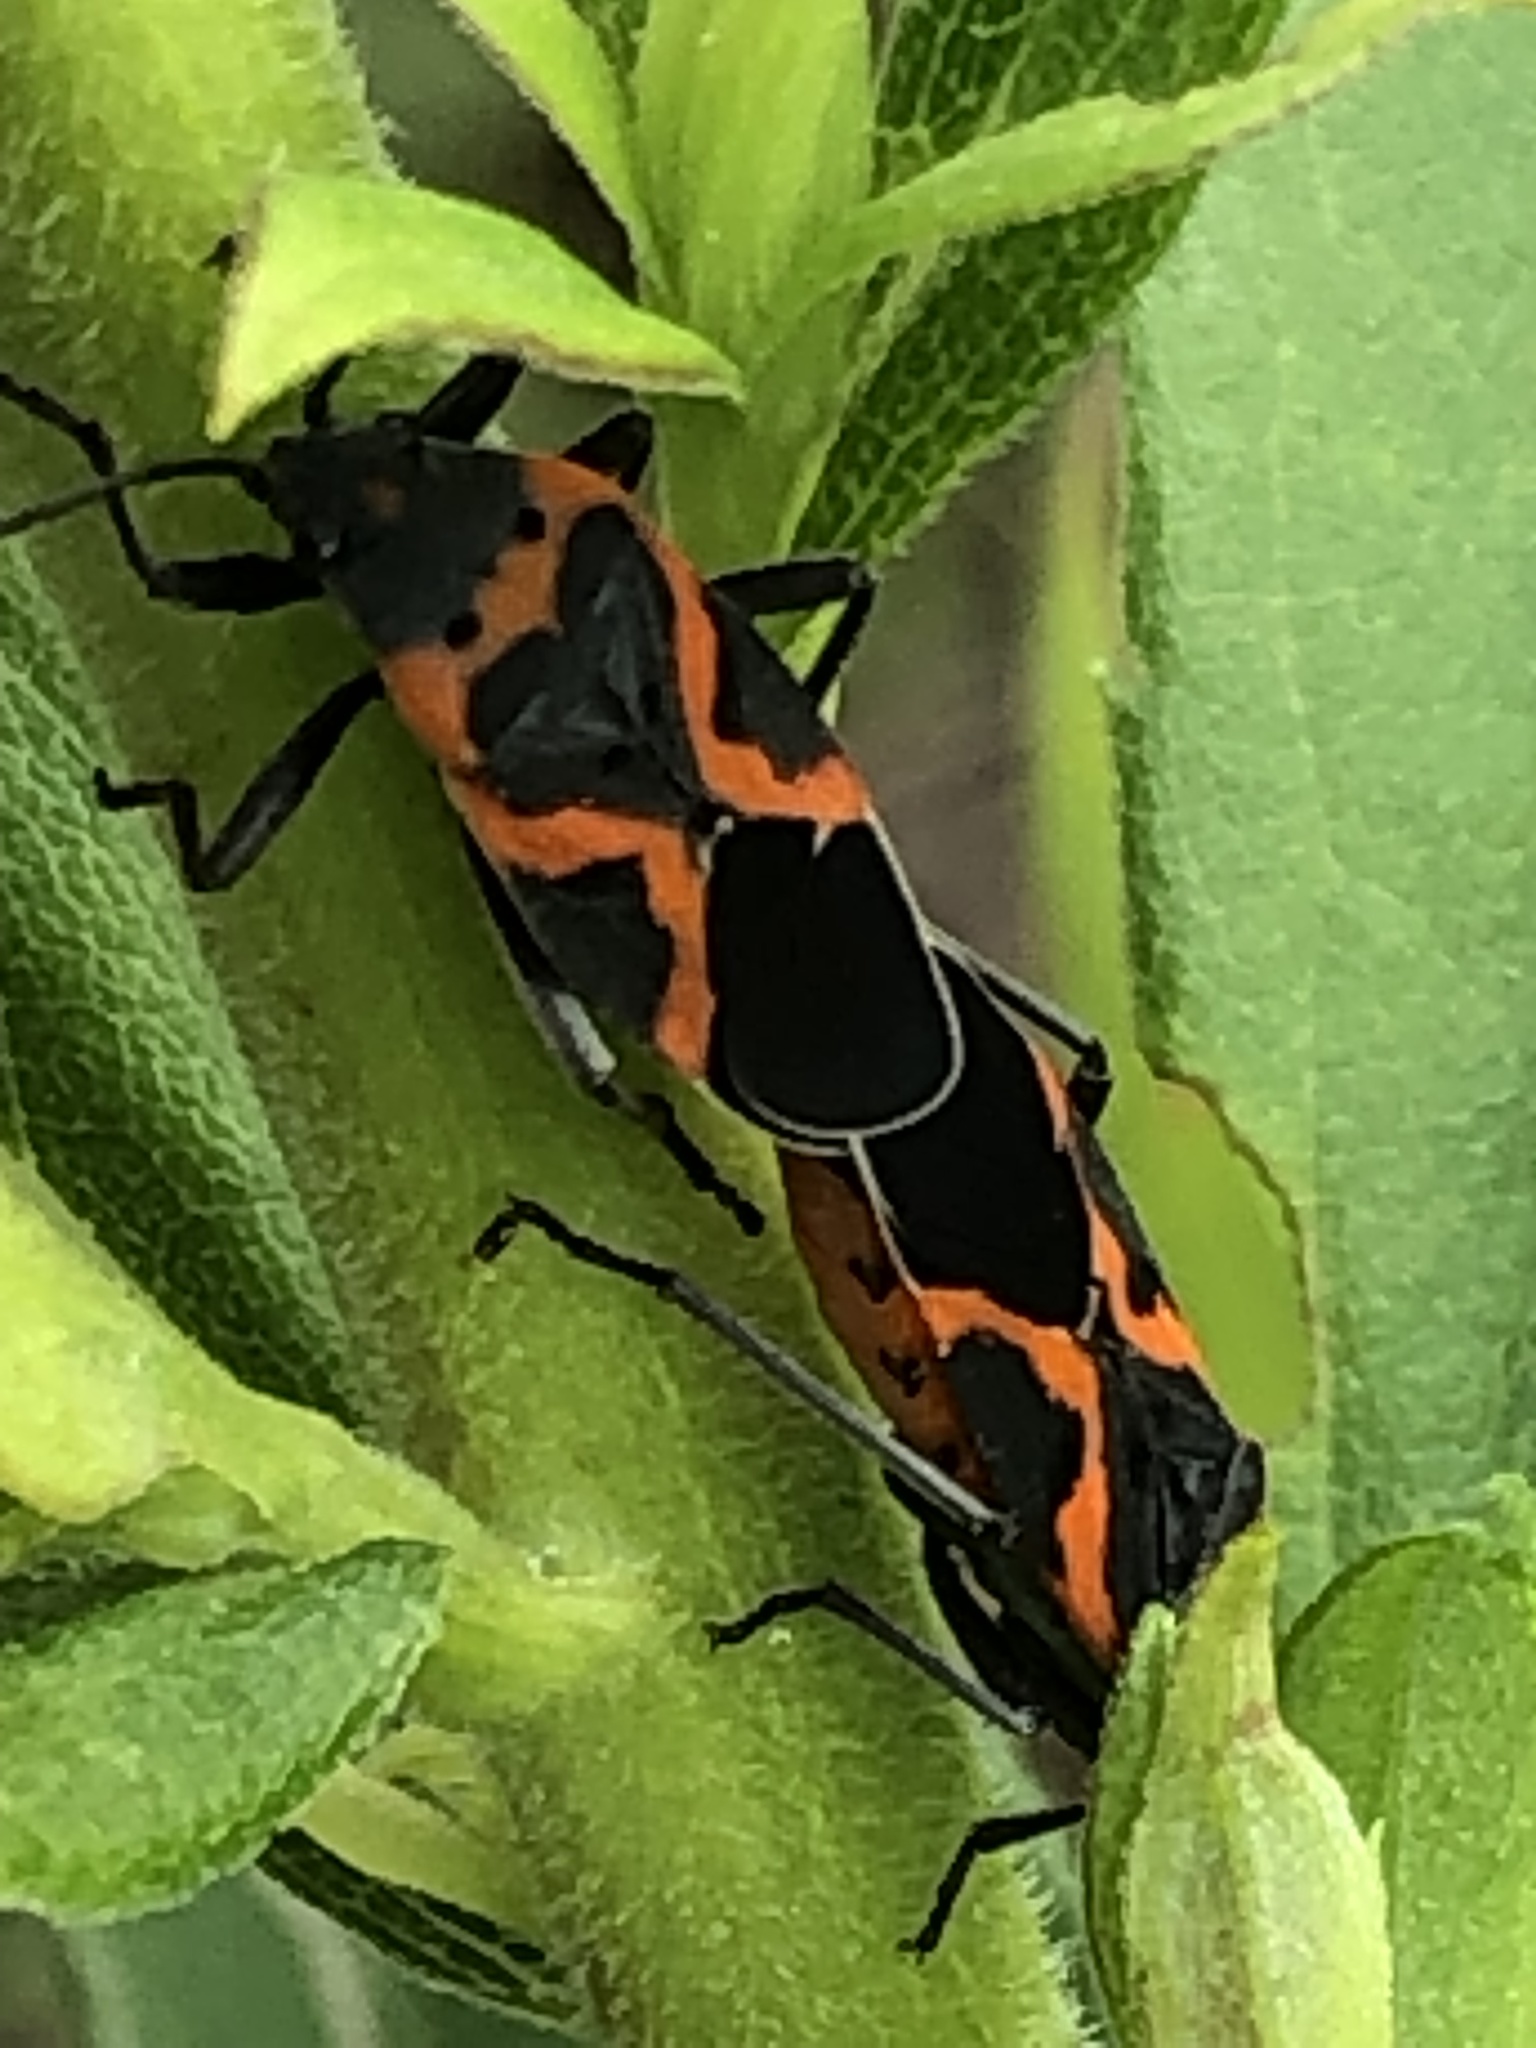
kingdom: Animalia
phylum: Arthropoda
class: Insecta
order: Hemiptera
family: Lygaeidae
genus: Lygaeus
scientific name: Lygaeus kalmii
